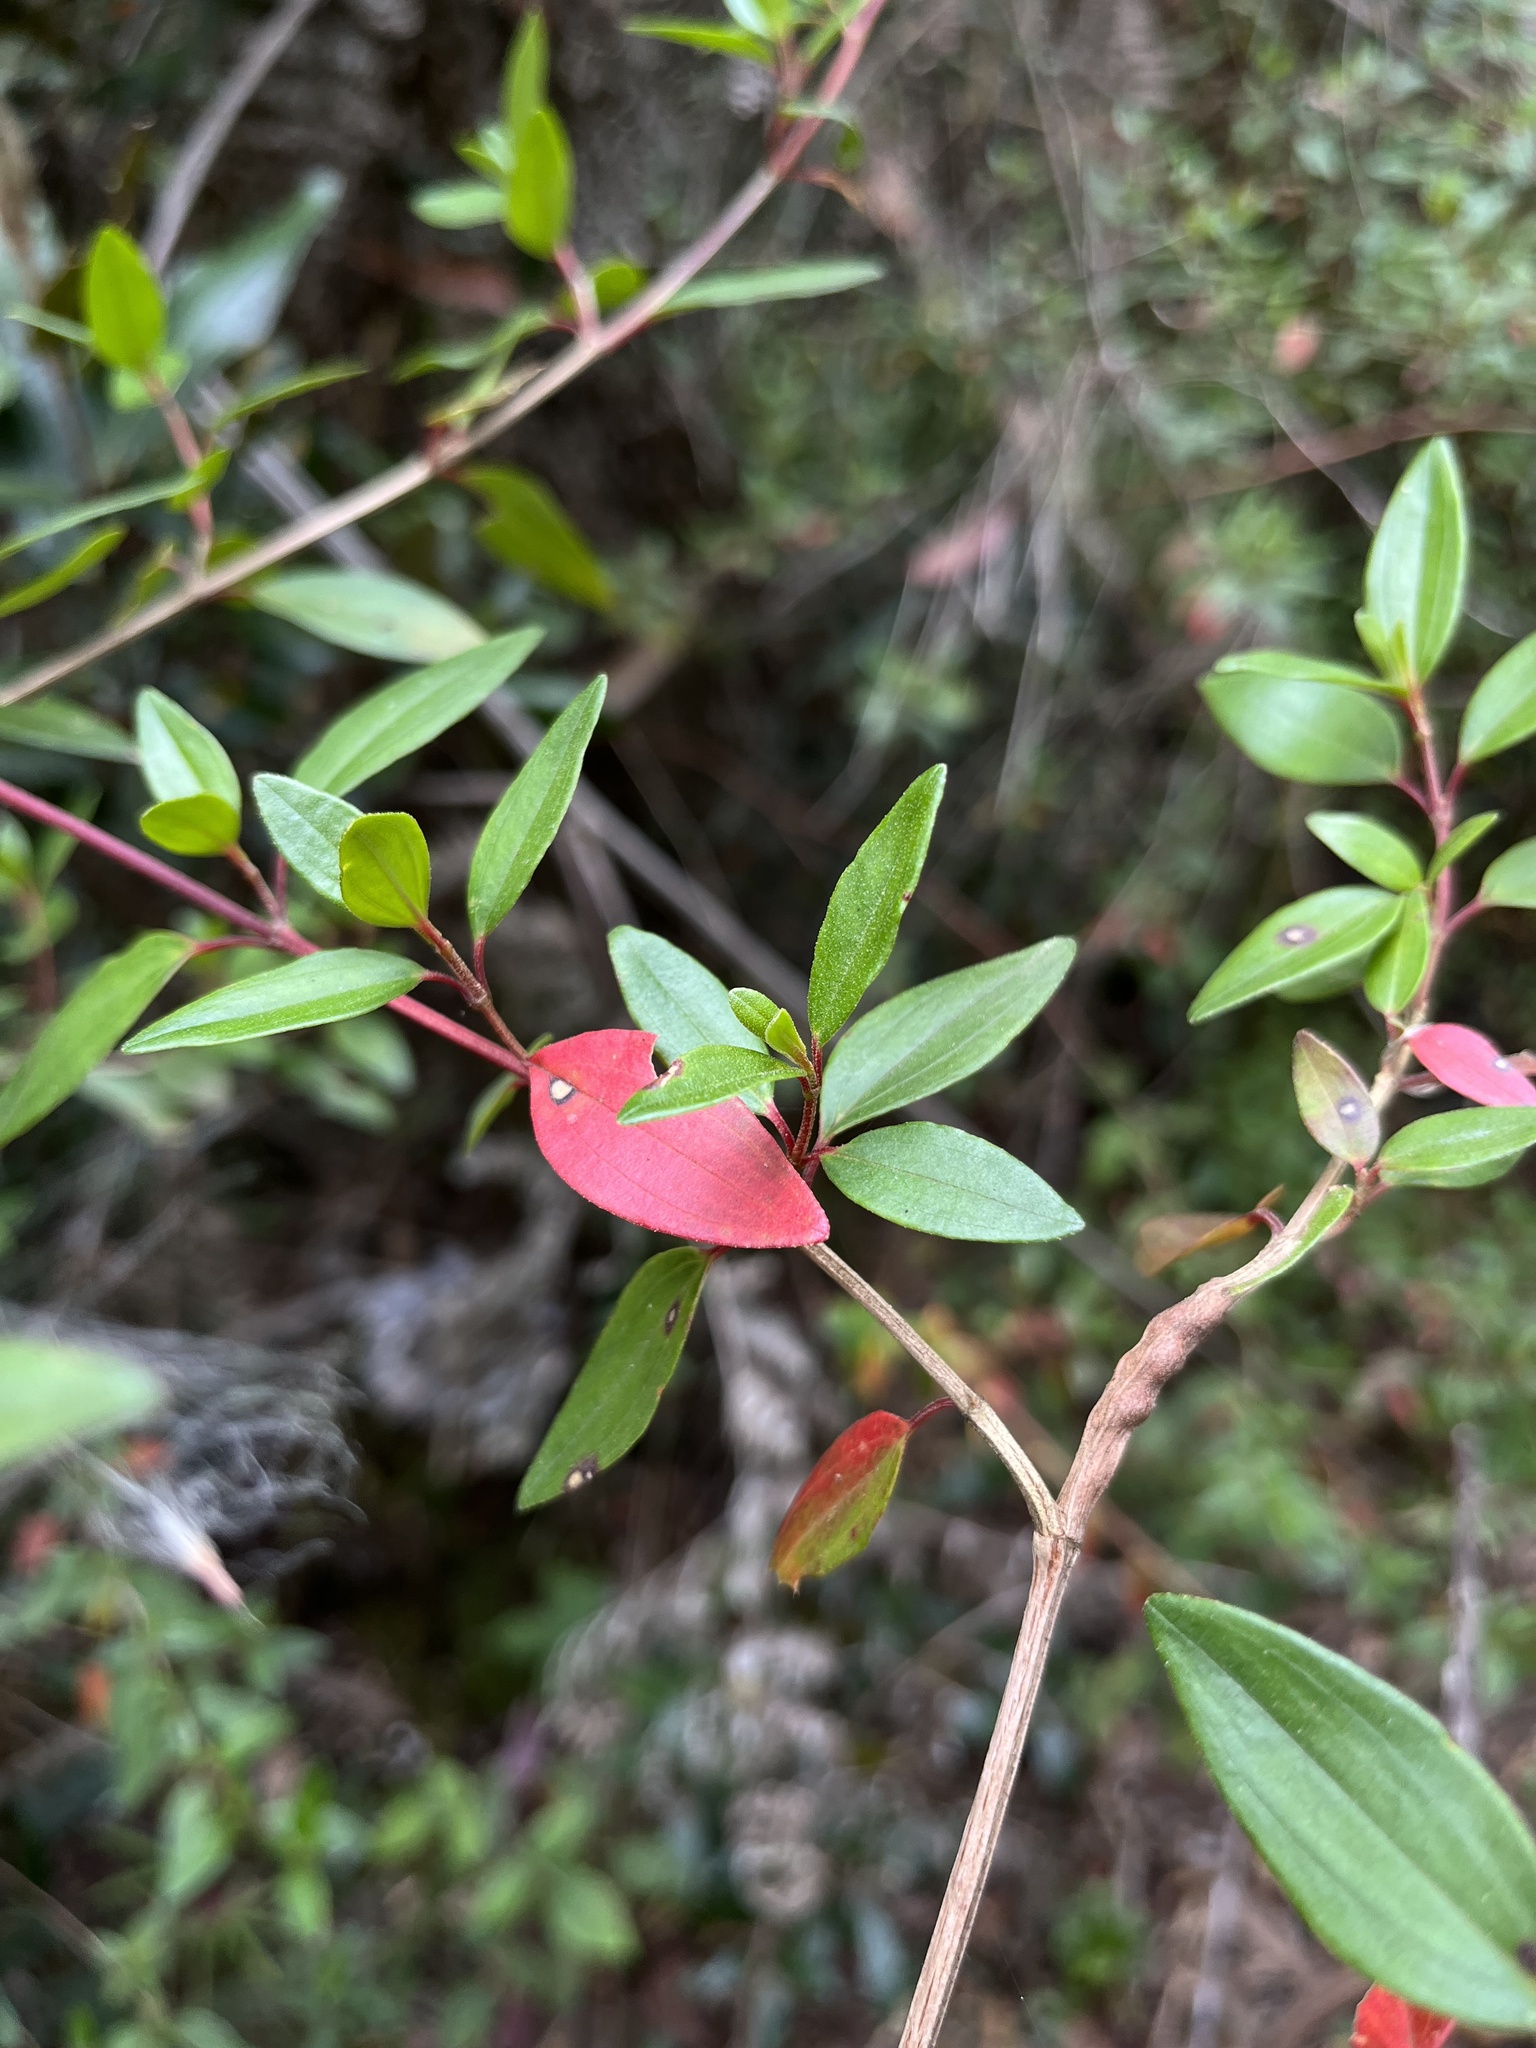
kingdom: Plantae
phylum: Tracheophyta
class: Magnoliopsida
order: Myrtales
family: Melastomataceae
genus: Monochaetum
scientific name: Monochaetum myrtoideum
